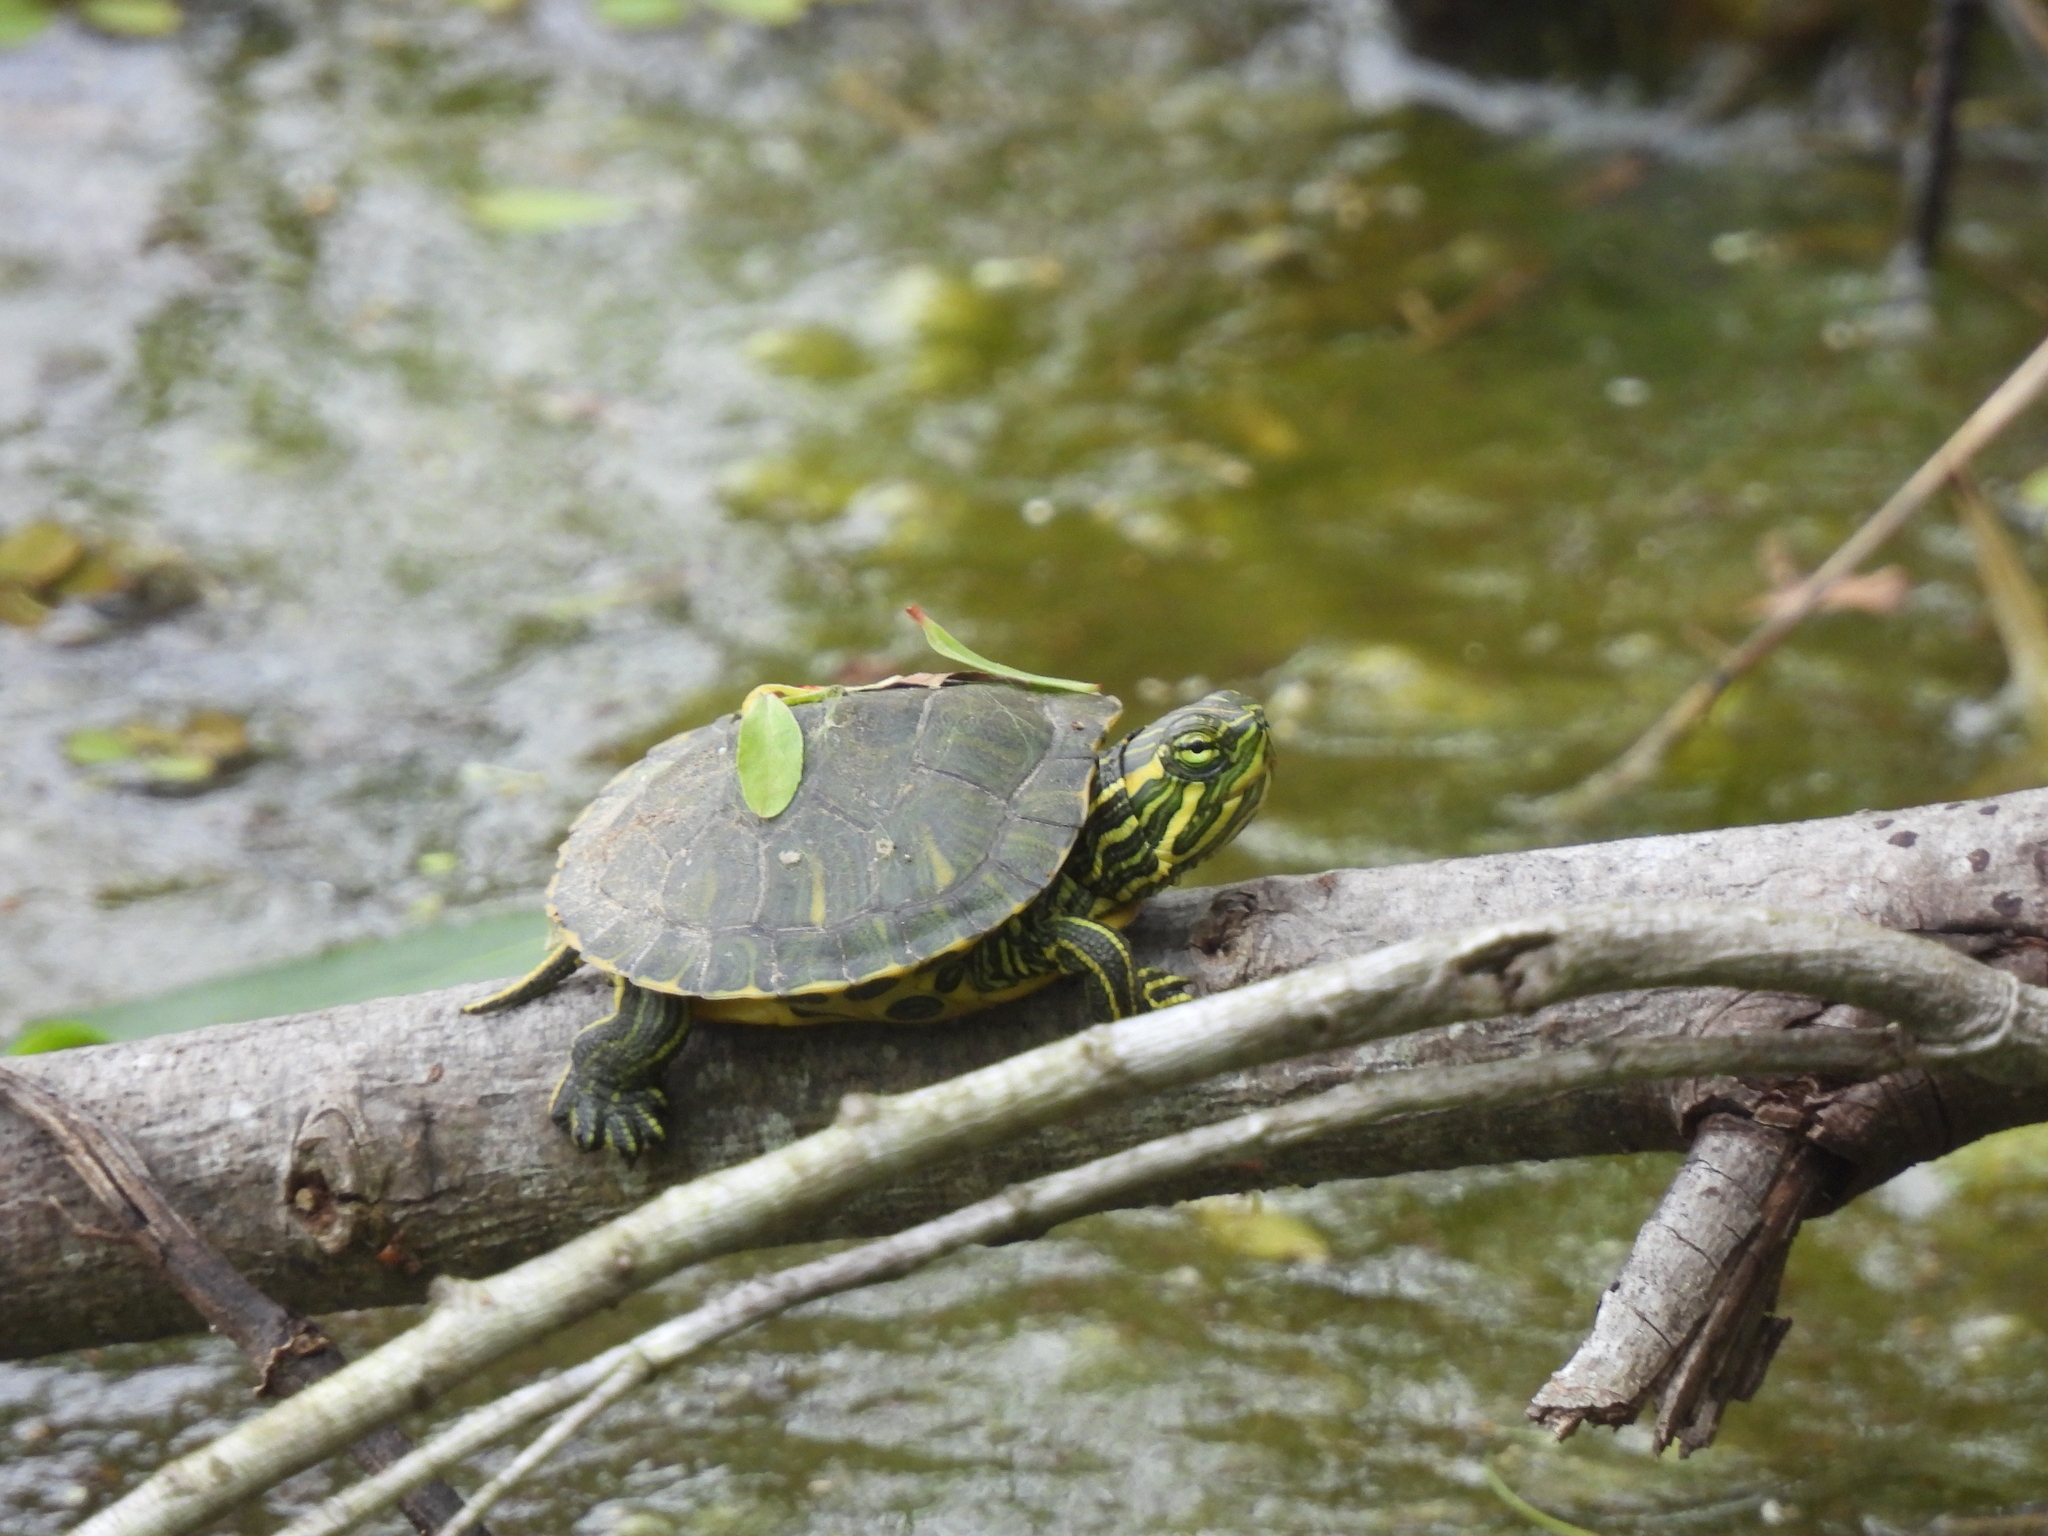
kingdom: Animalia
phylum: Chordata
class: Testudines
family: Emydidae
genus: Trachemys
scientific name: Trachemys scripta
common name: Slider
